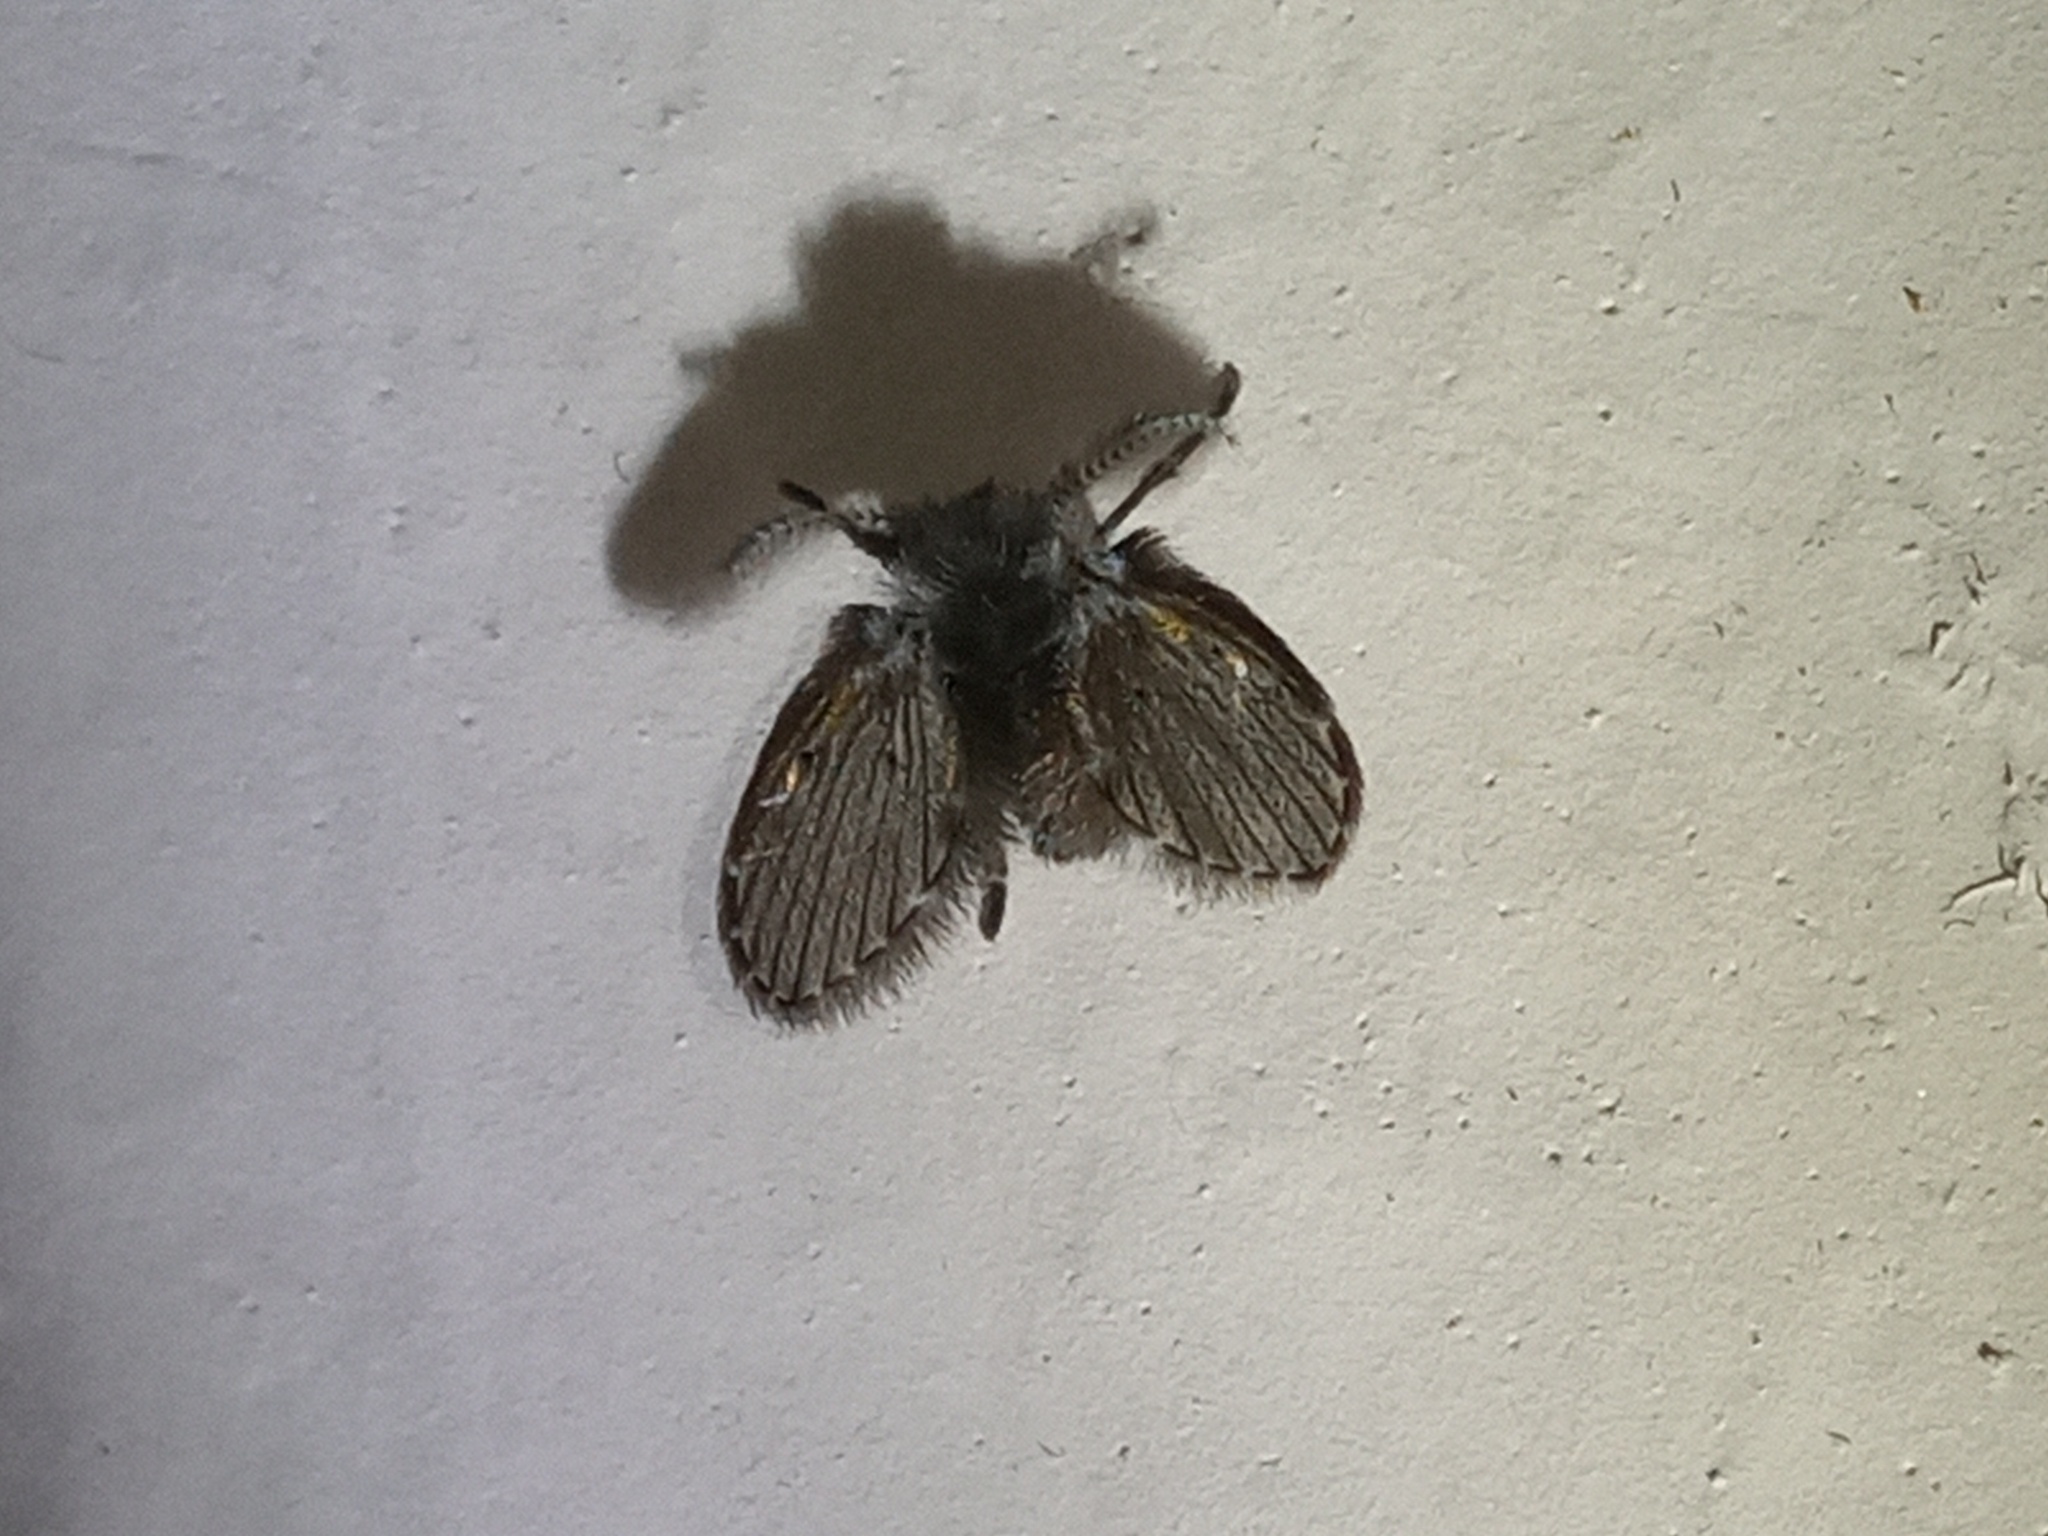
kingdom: Animalia
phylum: Arthropoda
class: Insecta
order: Diptera
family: Psychodidae
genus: Clogmia
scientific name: Clogmia albipunctatus
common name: White-spotted moth fly
